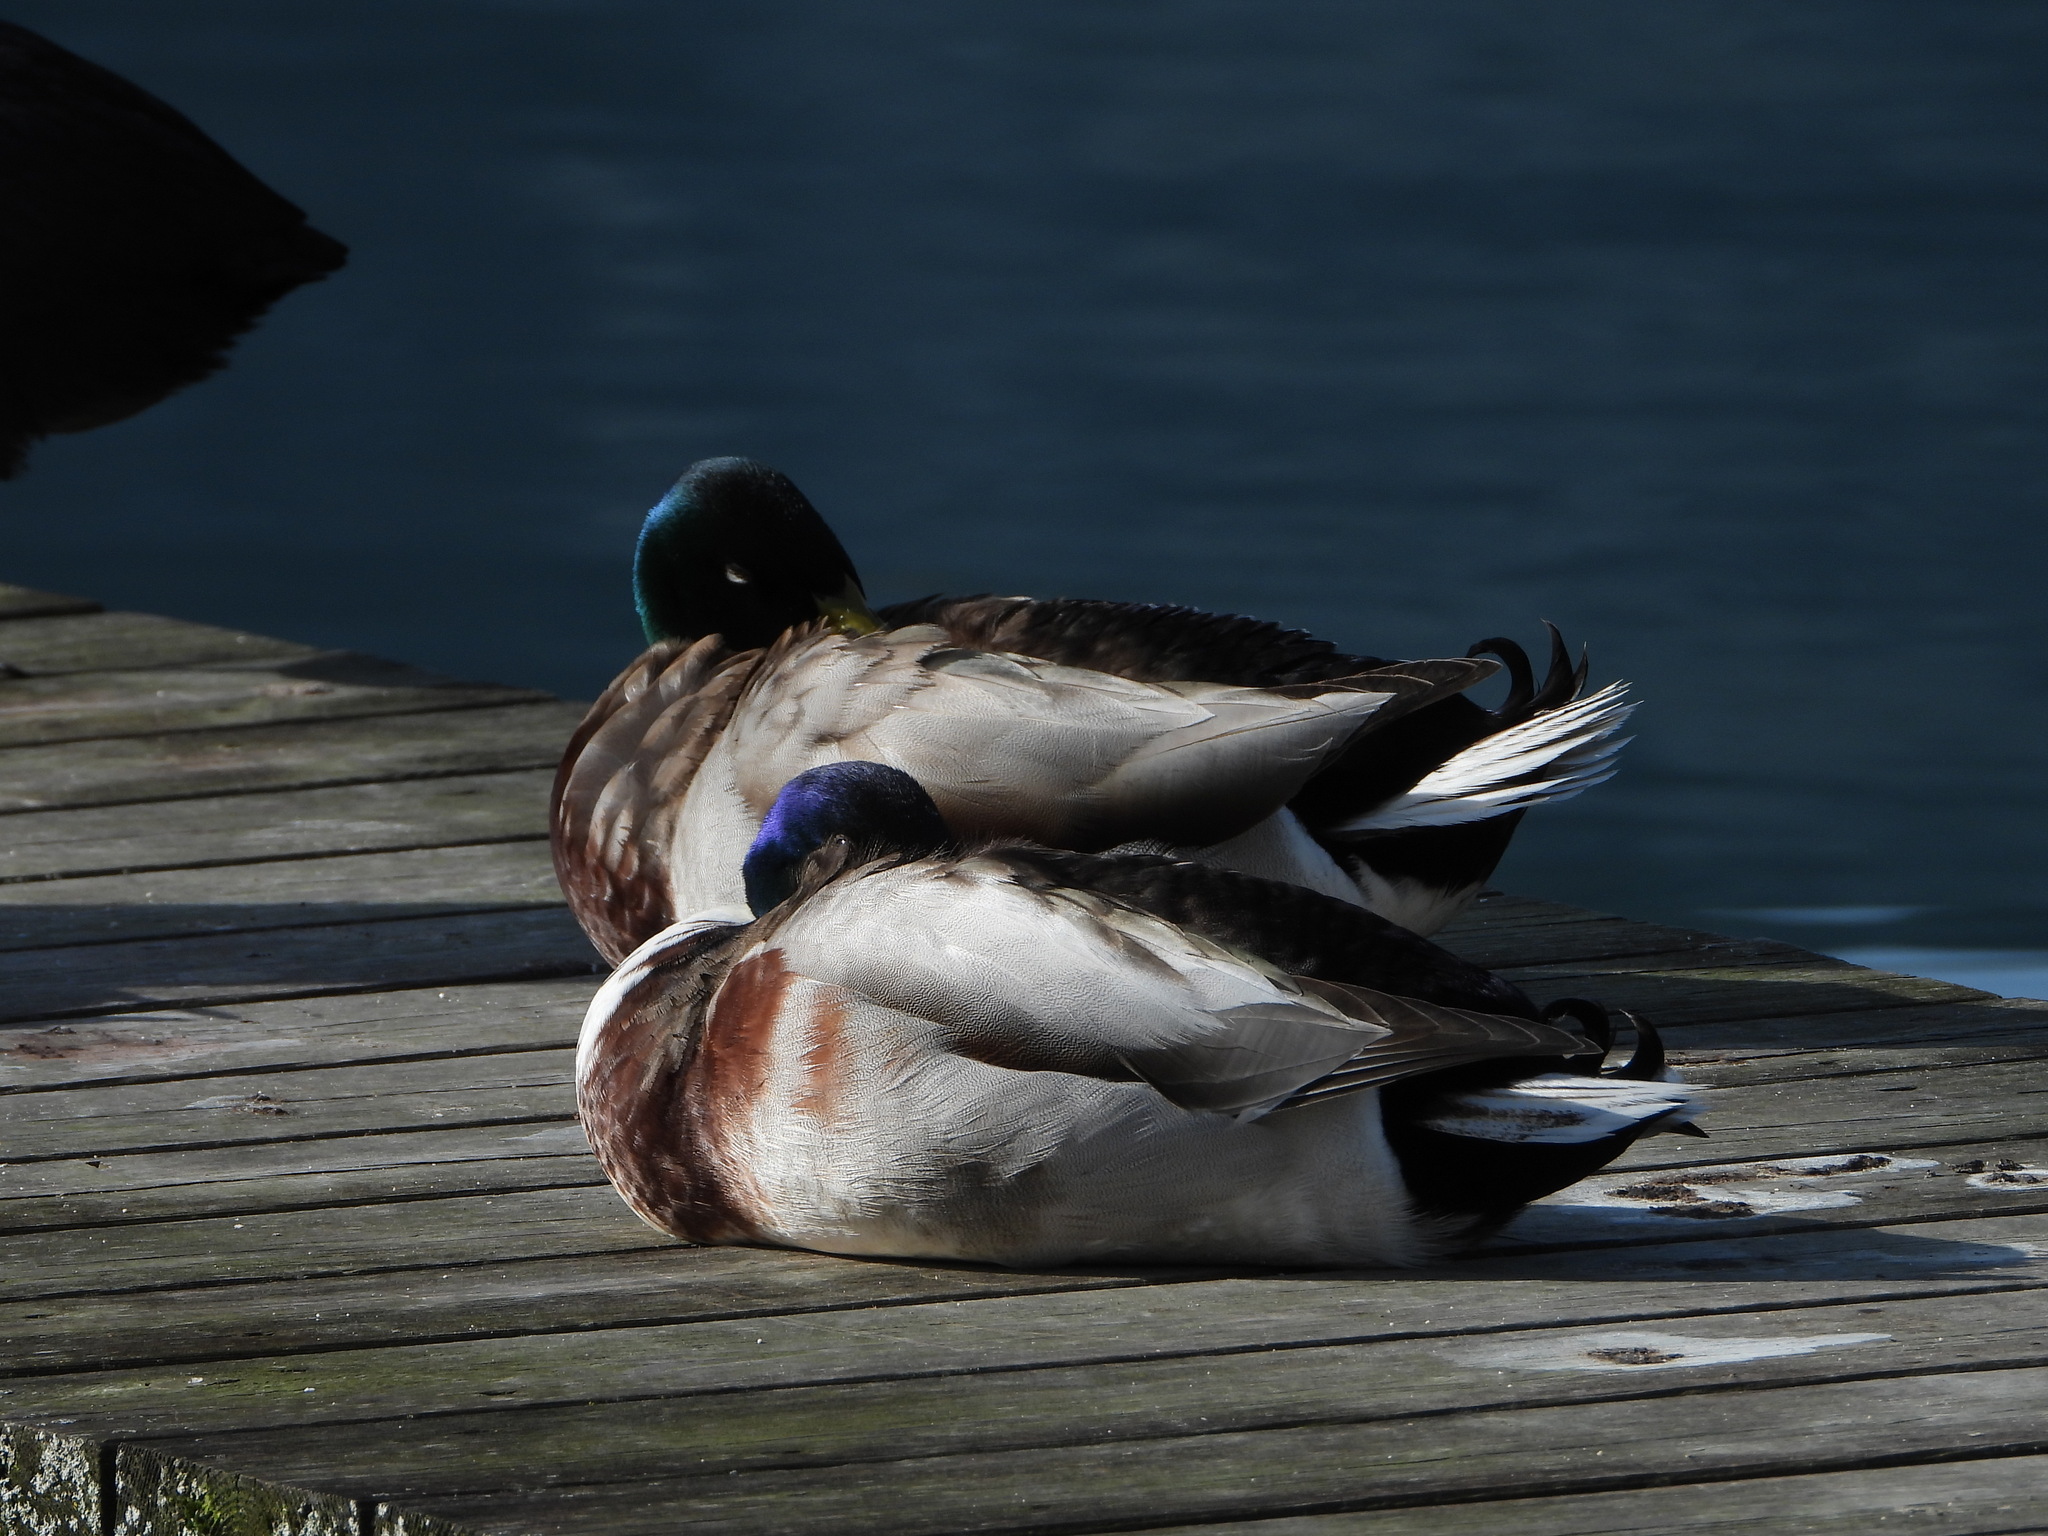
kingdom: Animalia
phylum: Chordata
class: Aves
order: Anseriformes
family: Anatidae
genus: Anas
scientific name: Anas platyrhynchos
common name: Mallard
